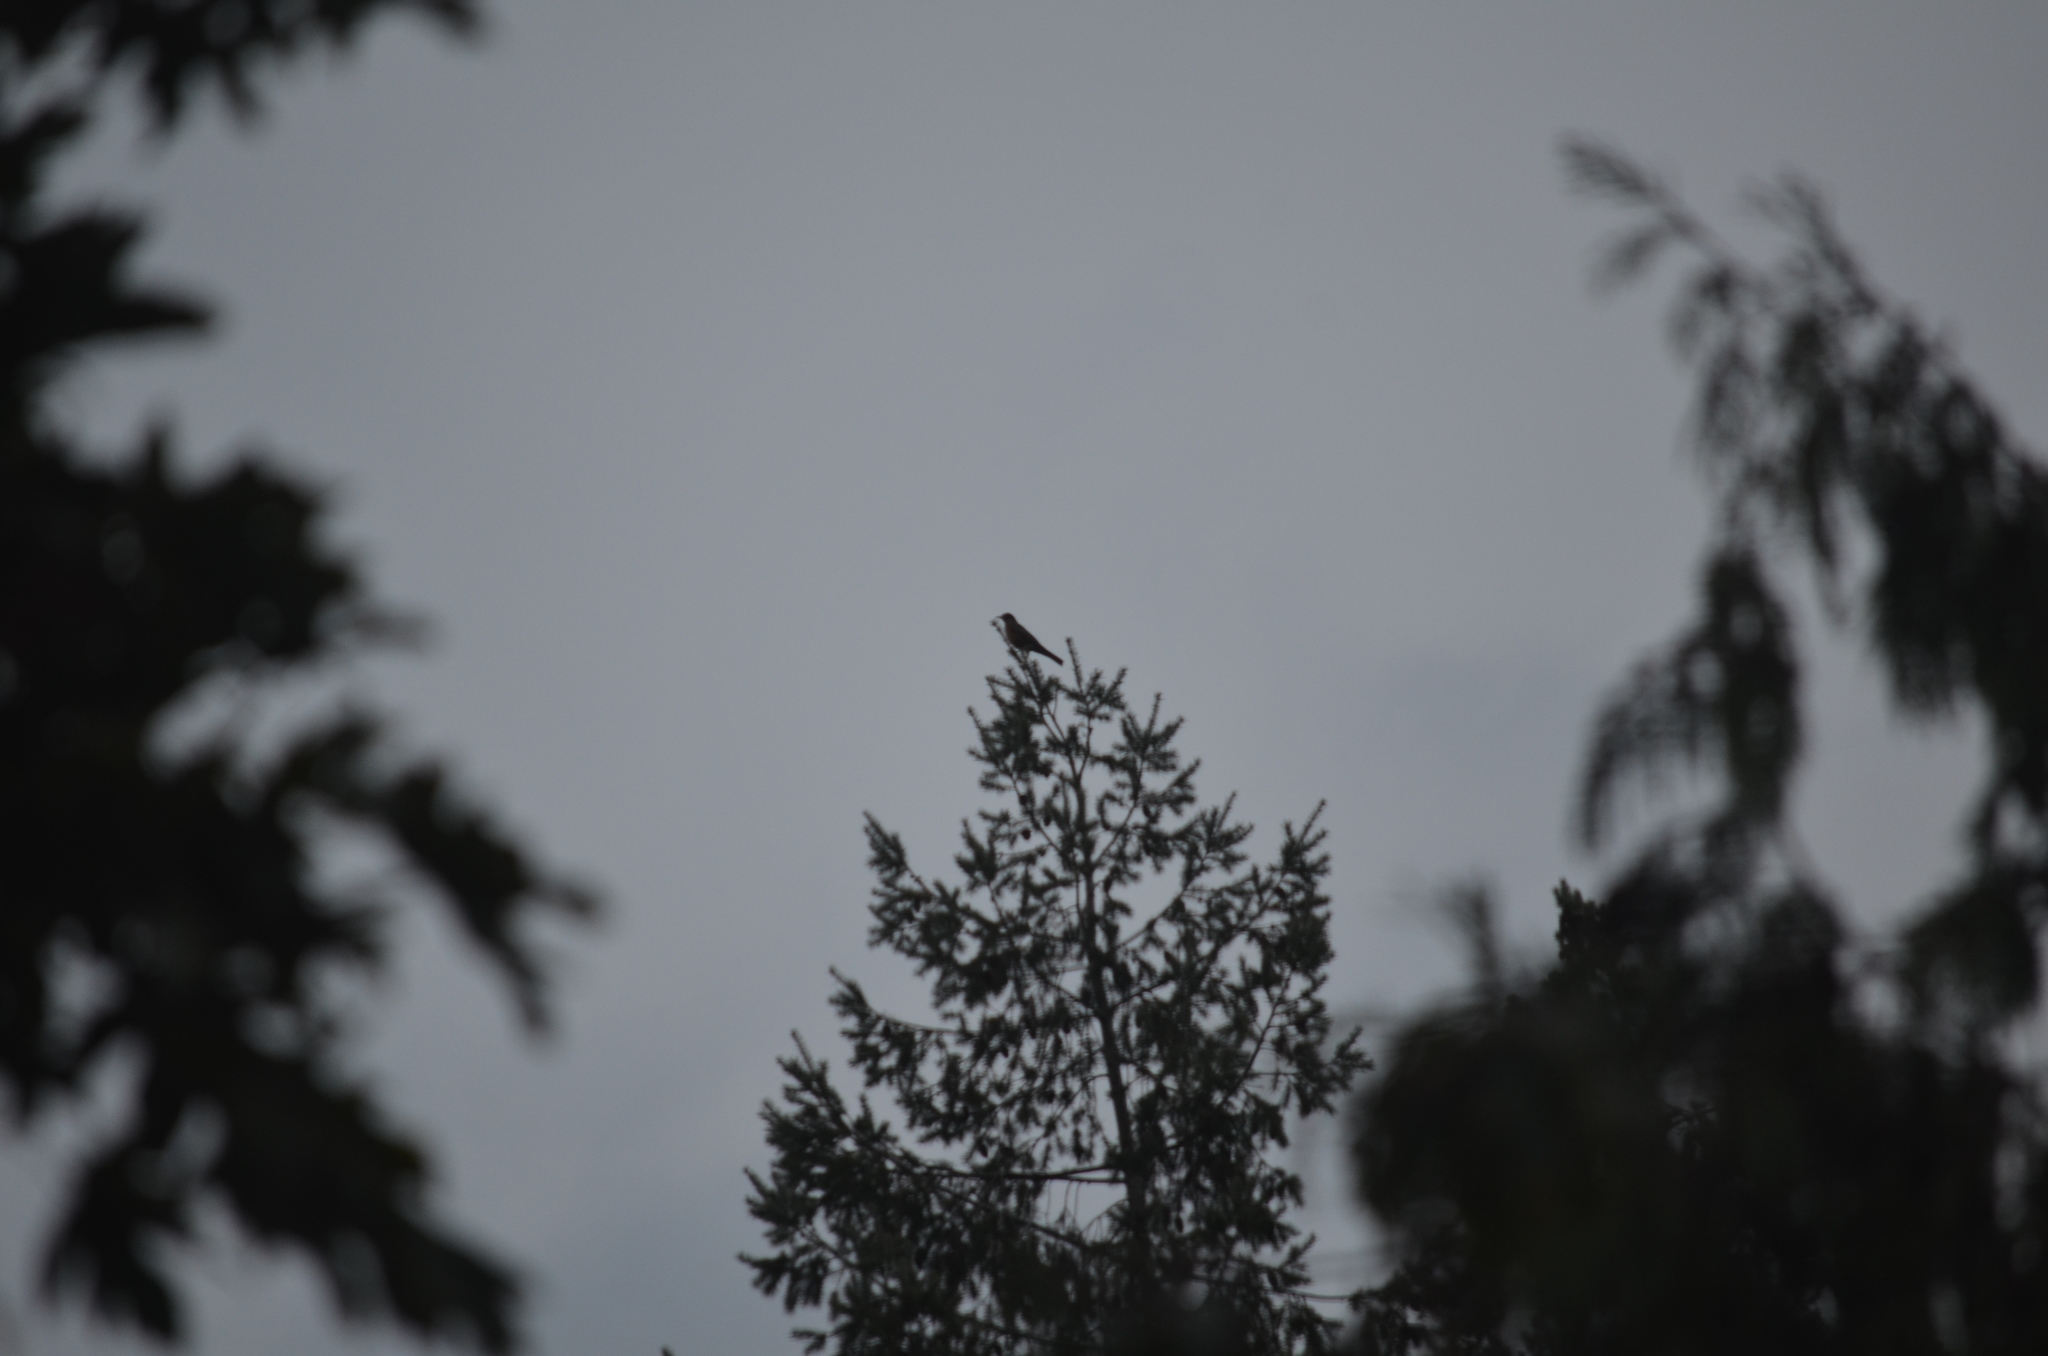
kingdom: Animalia
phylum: Chordata
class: Aves
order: Passeriformes
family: Turdidae
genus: Turdus
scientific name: Turdus migratorius
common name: American robin
